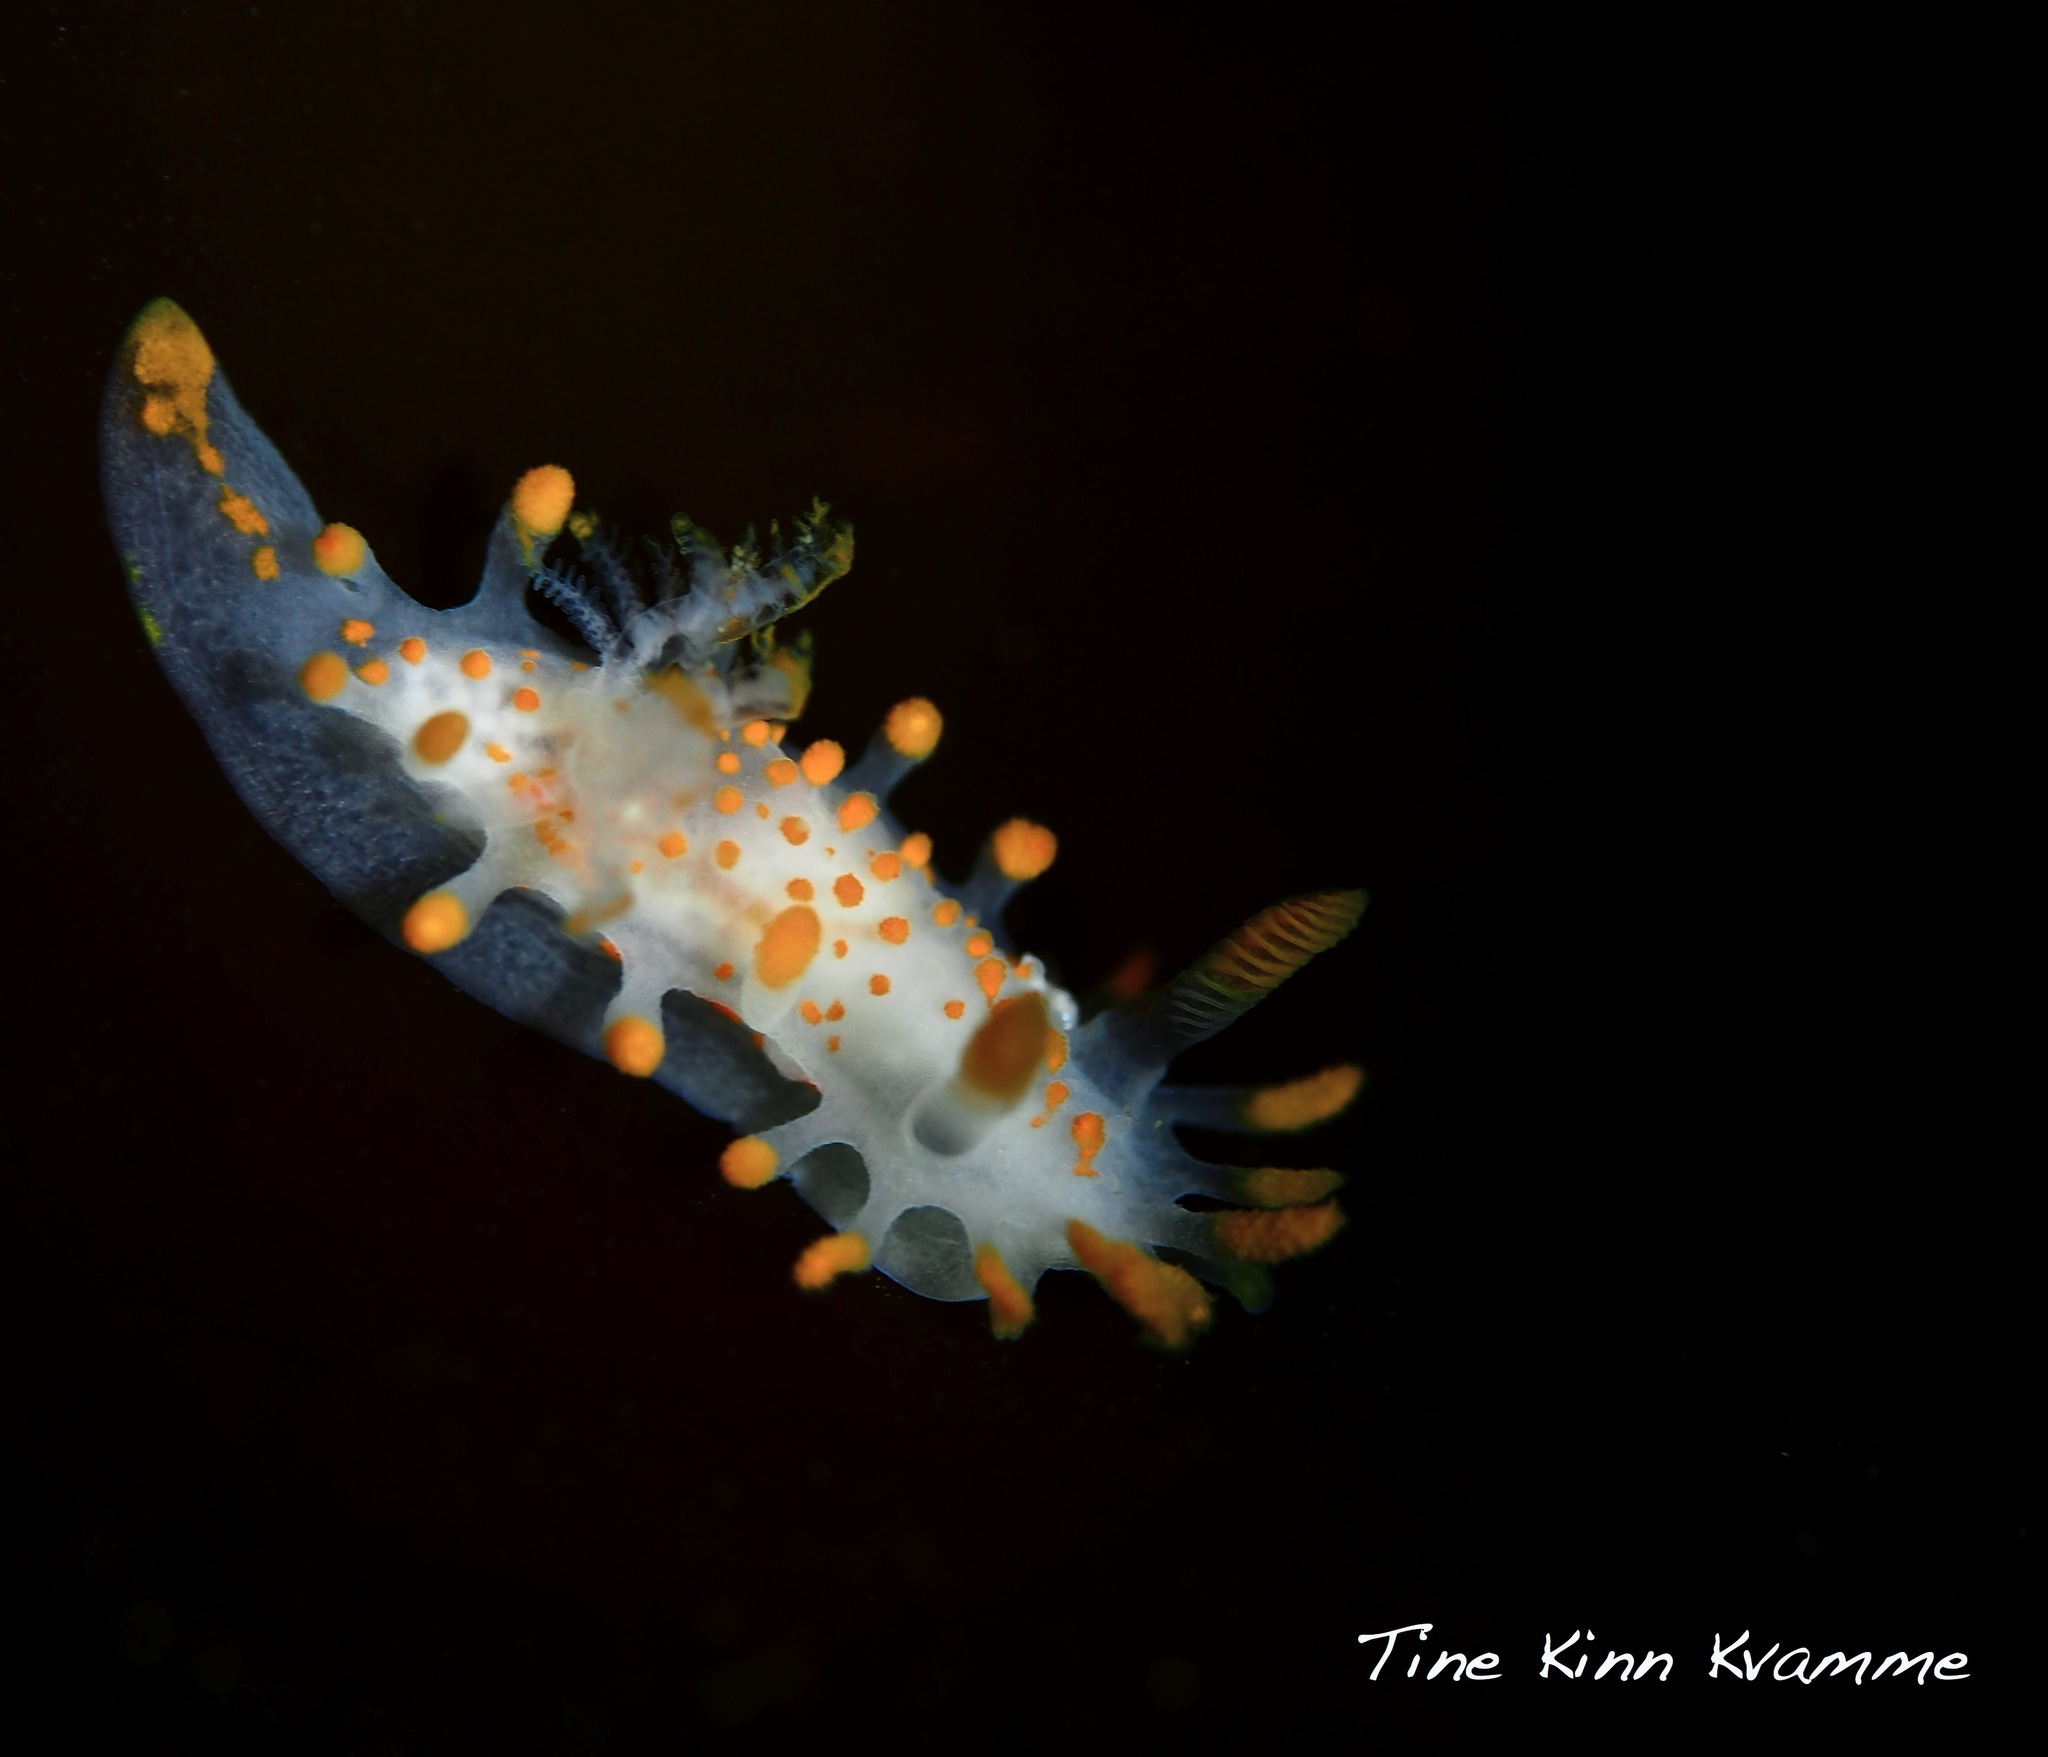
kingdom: Animalia
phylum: Mollusca
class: Gastropoda
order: Nudibranchia
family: Polyceridae
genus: Limacia
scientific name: Limacia clavigera
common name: Orange-clubbed sea slug
